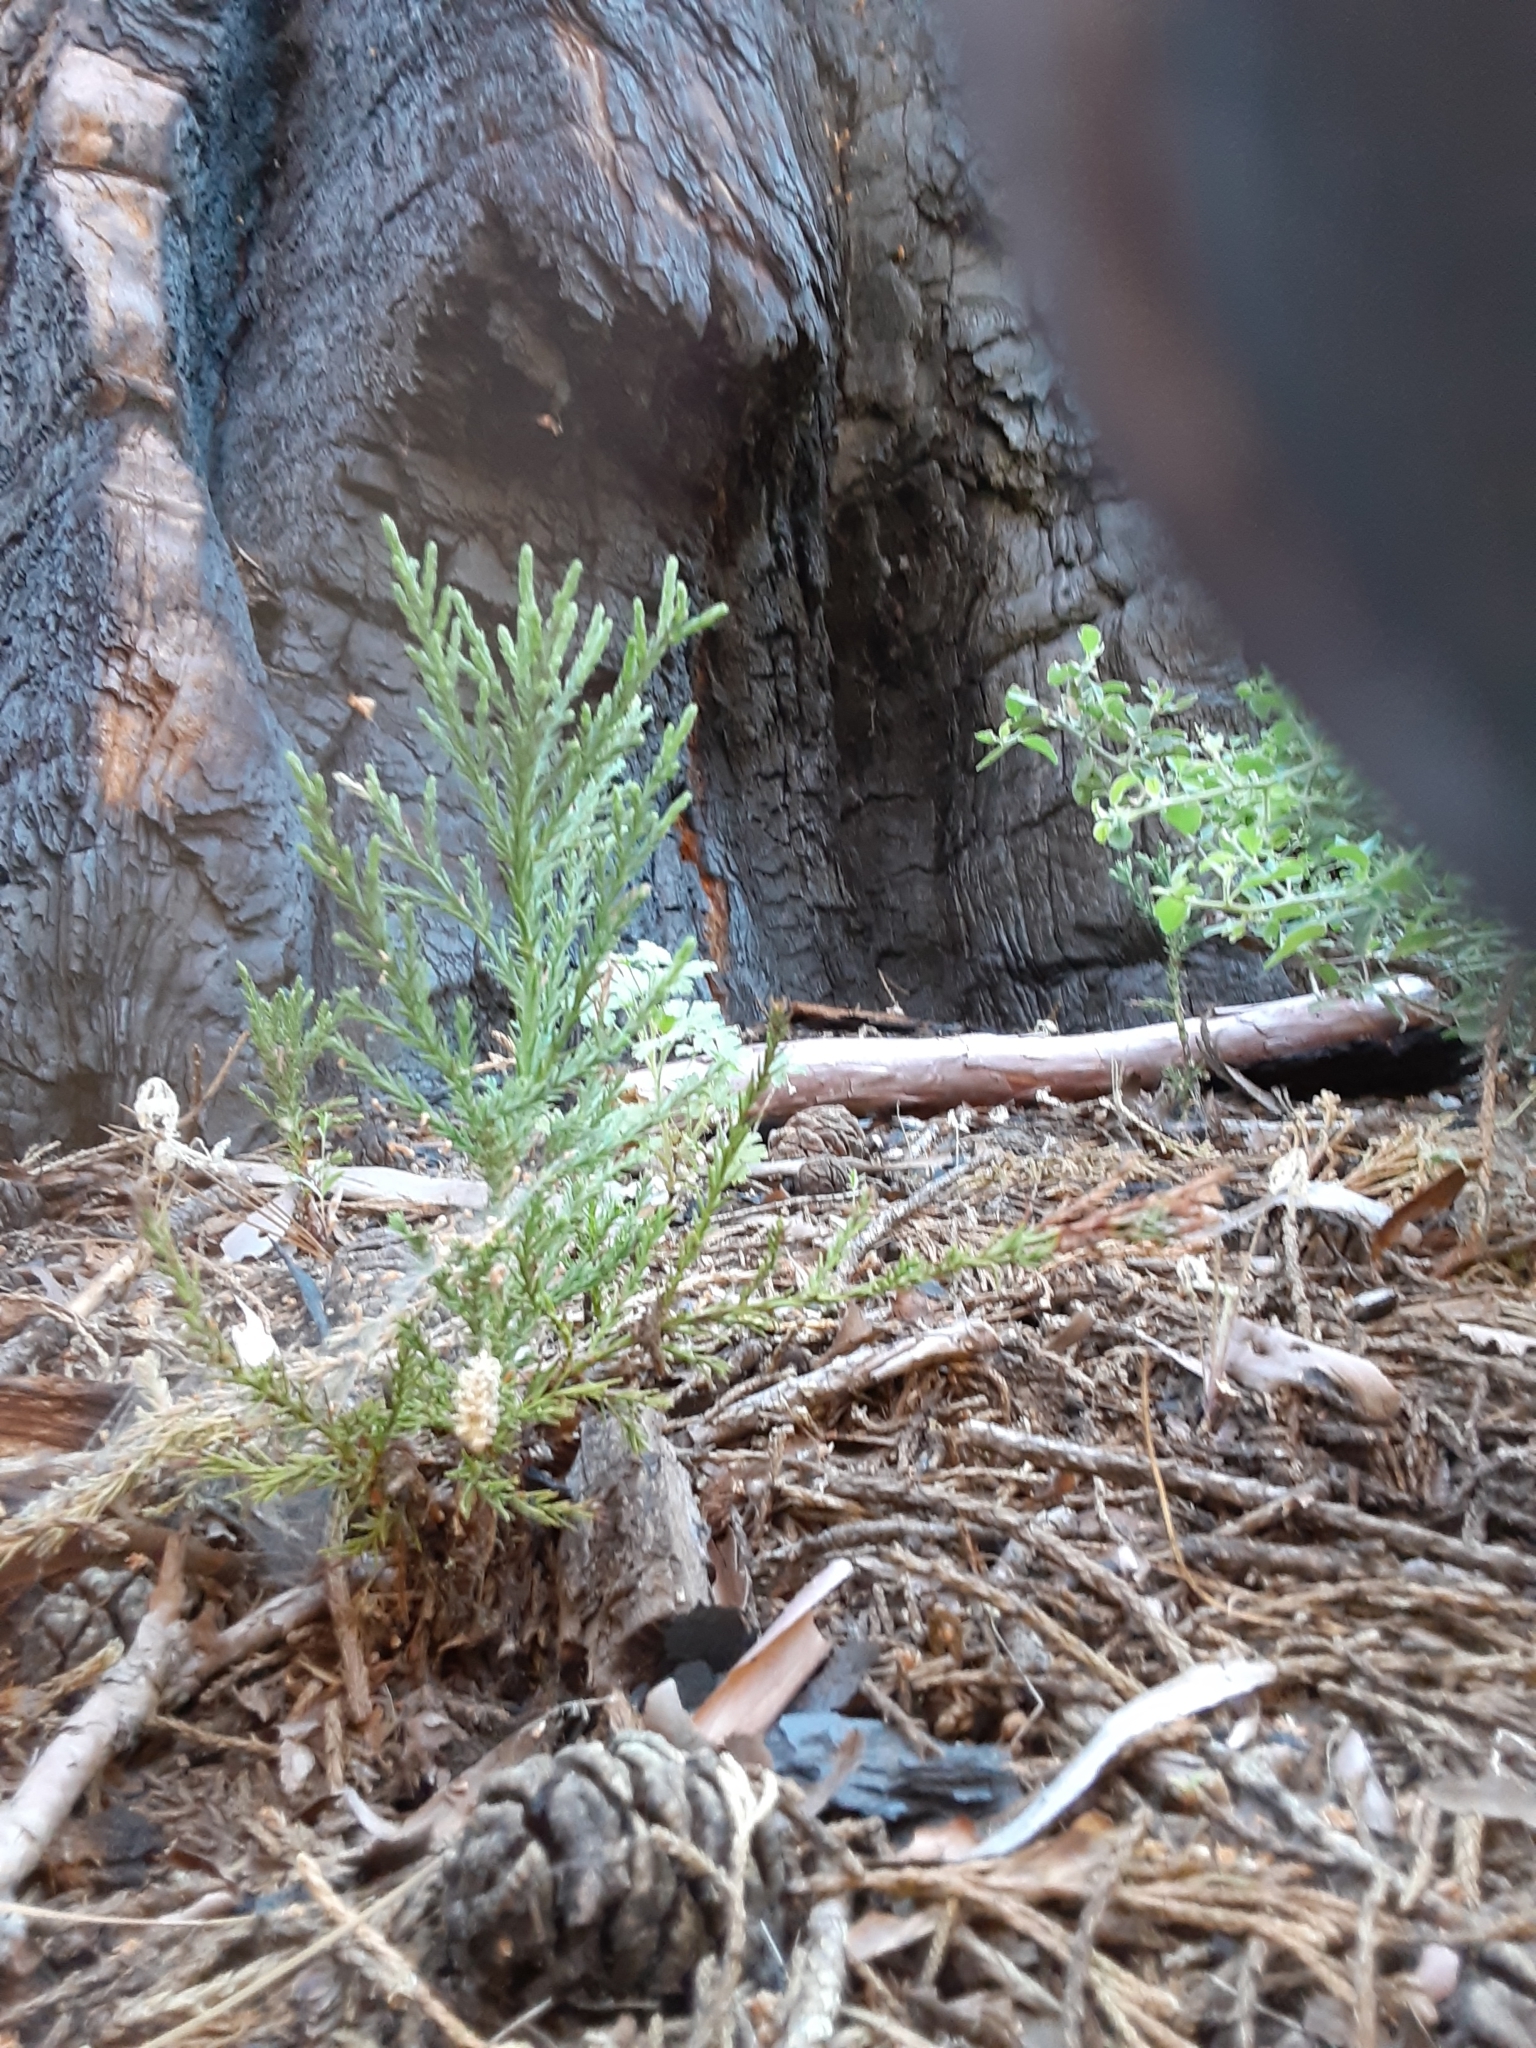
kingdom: Plantae
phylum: Tracheophyta
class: Pinopsida
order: Pinales
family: Cupressaceae
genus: Sequoiadendron
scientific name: Sequoiadendron giganteum
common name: Wellingtonia
